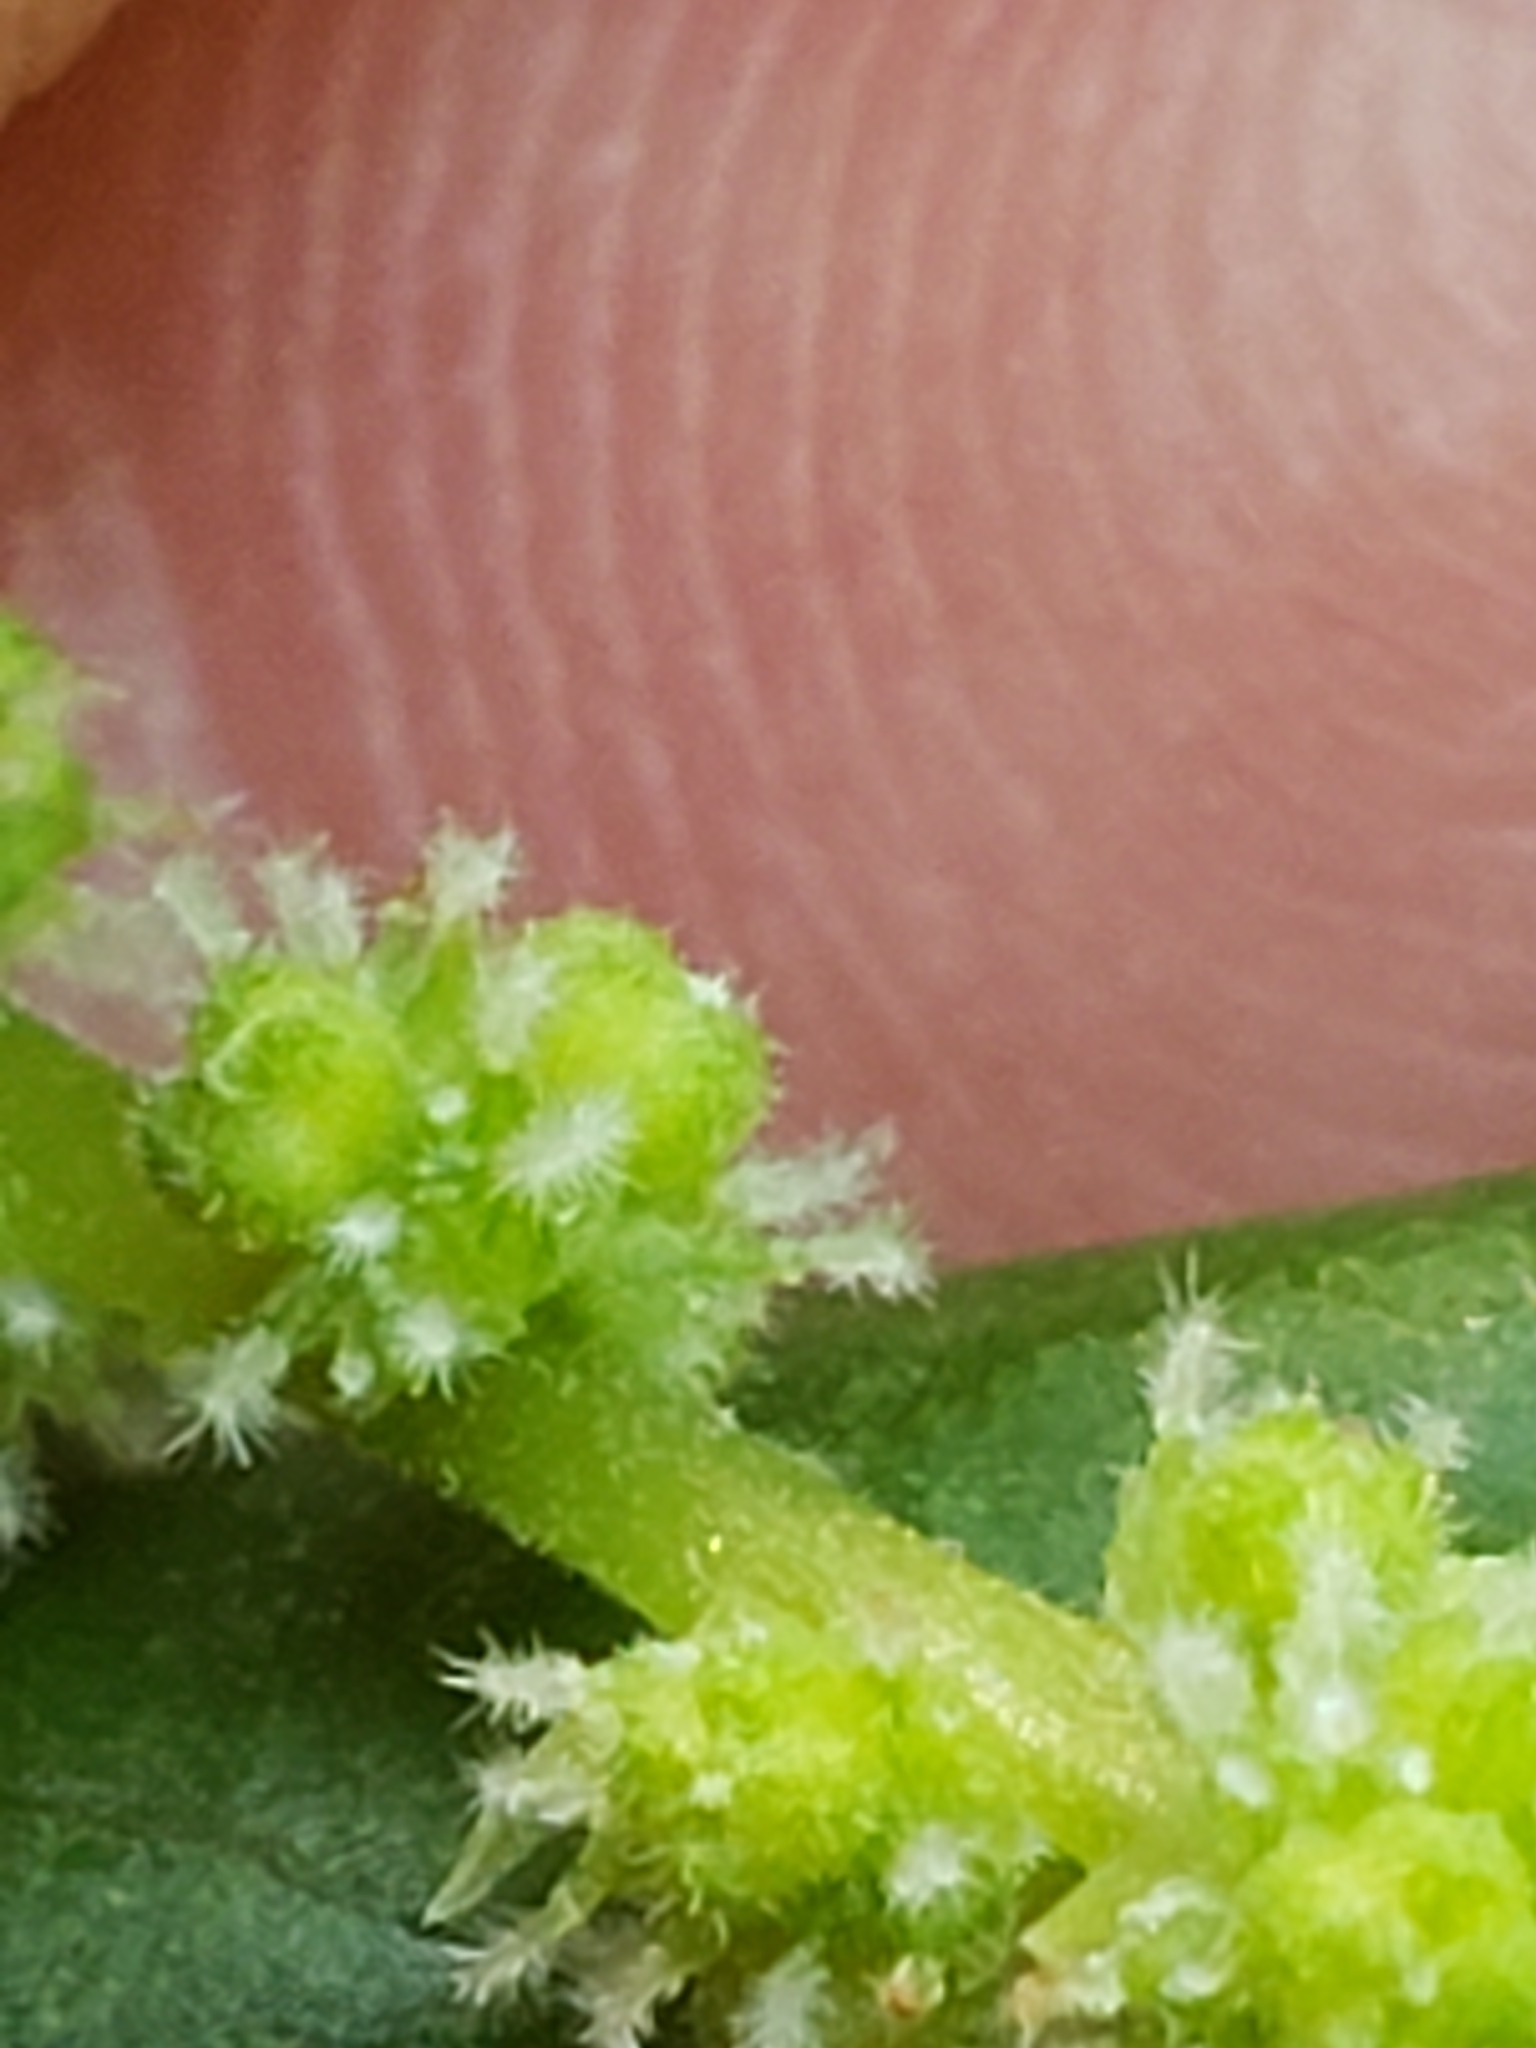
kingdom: Plantae
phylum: Tracheophyta
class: Magnoliopsida
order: Rosales
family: Urticaceae
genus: Boehmeria
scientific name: Boehmeria cylindrica
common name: Bog-hemp
